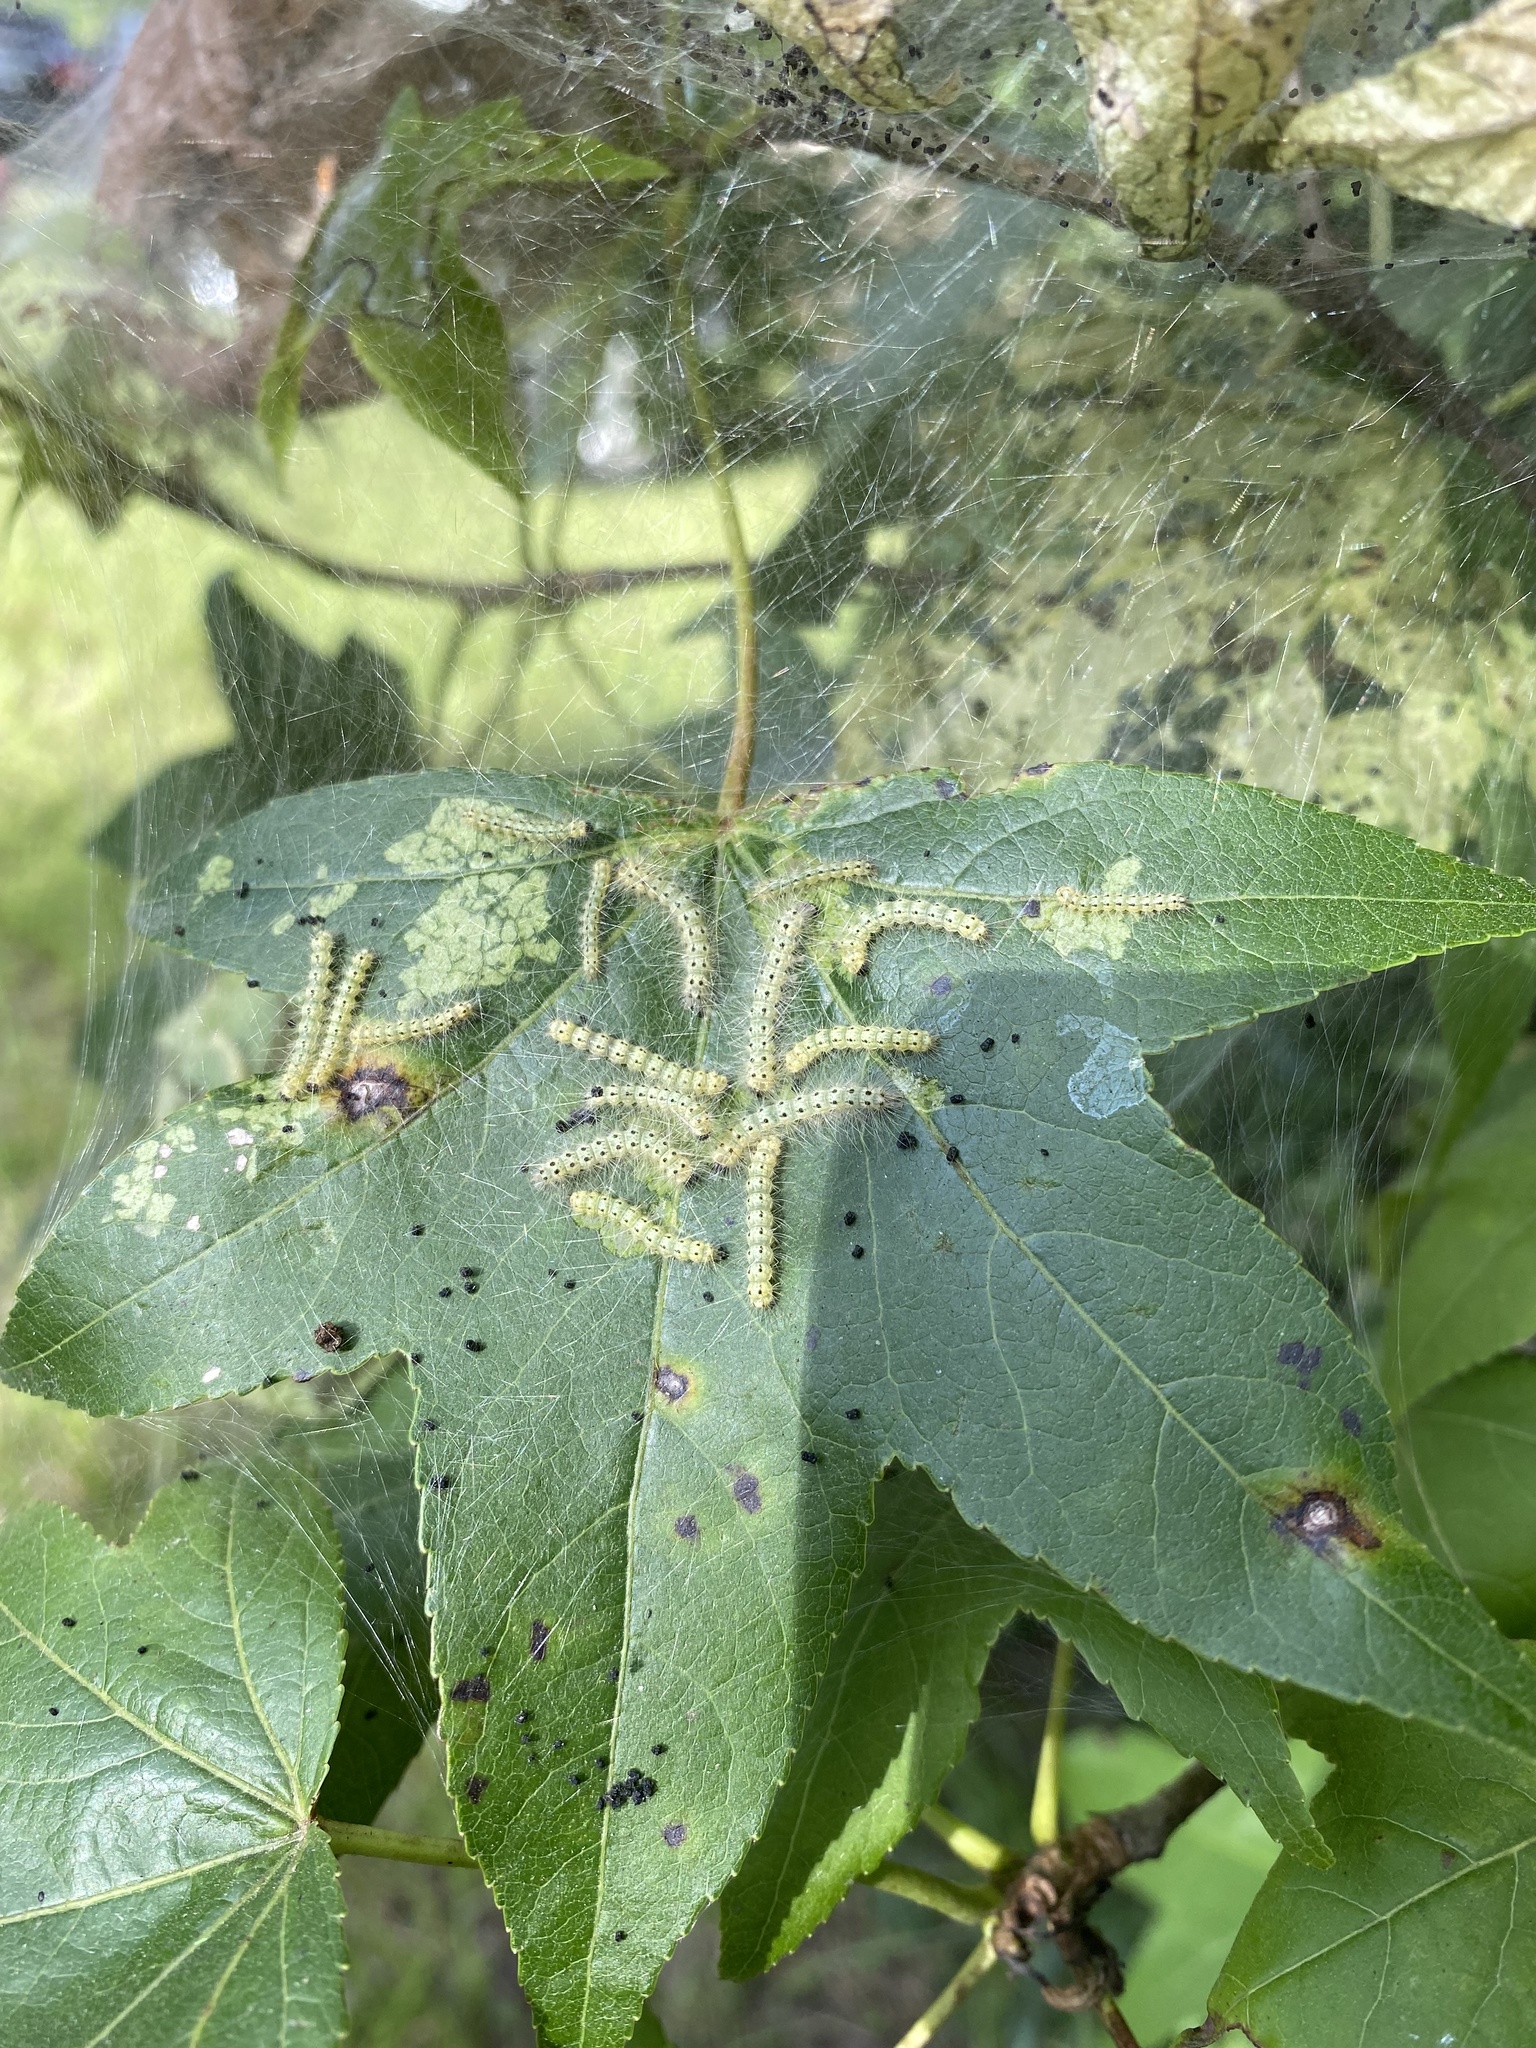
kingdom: Animalia
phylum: Arthropoda
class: Insecta
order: Lepidoptera
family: Erebidae
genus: Hyphantria
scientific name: Hyphantria cunea
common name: American white moth
